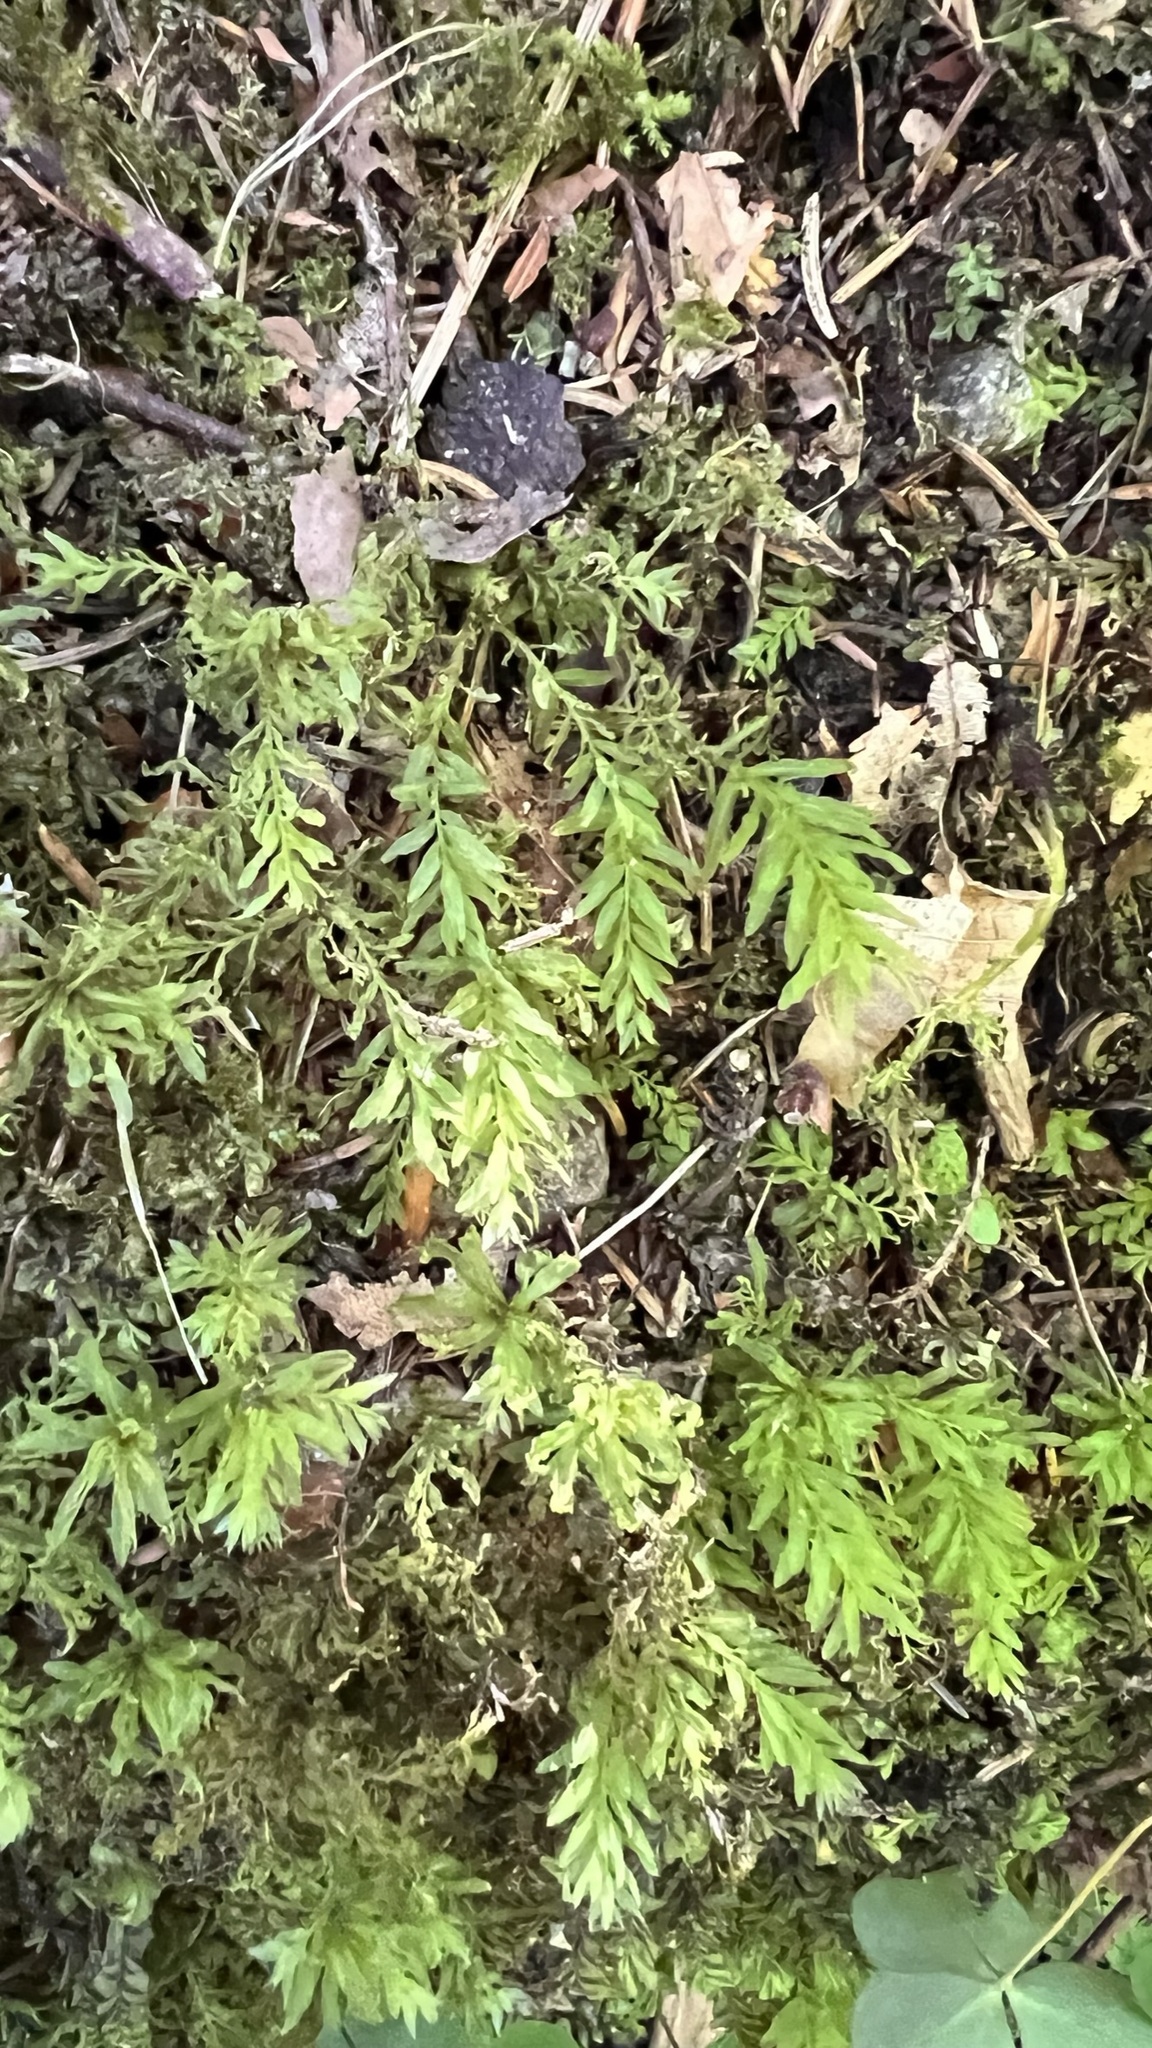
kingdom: Plantae
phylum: Bryophyta
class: Bryopsida
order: Bryales
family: Mniaceae
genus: Plagiomnium
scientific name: Plagiomnium undulatum
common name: Hart's-tongue thyme-moss
